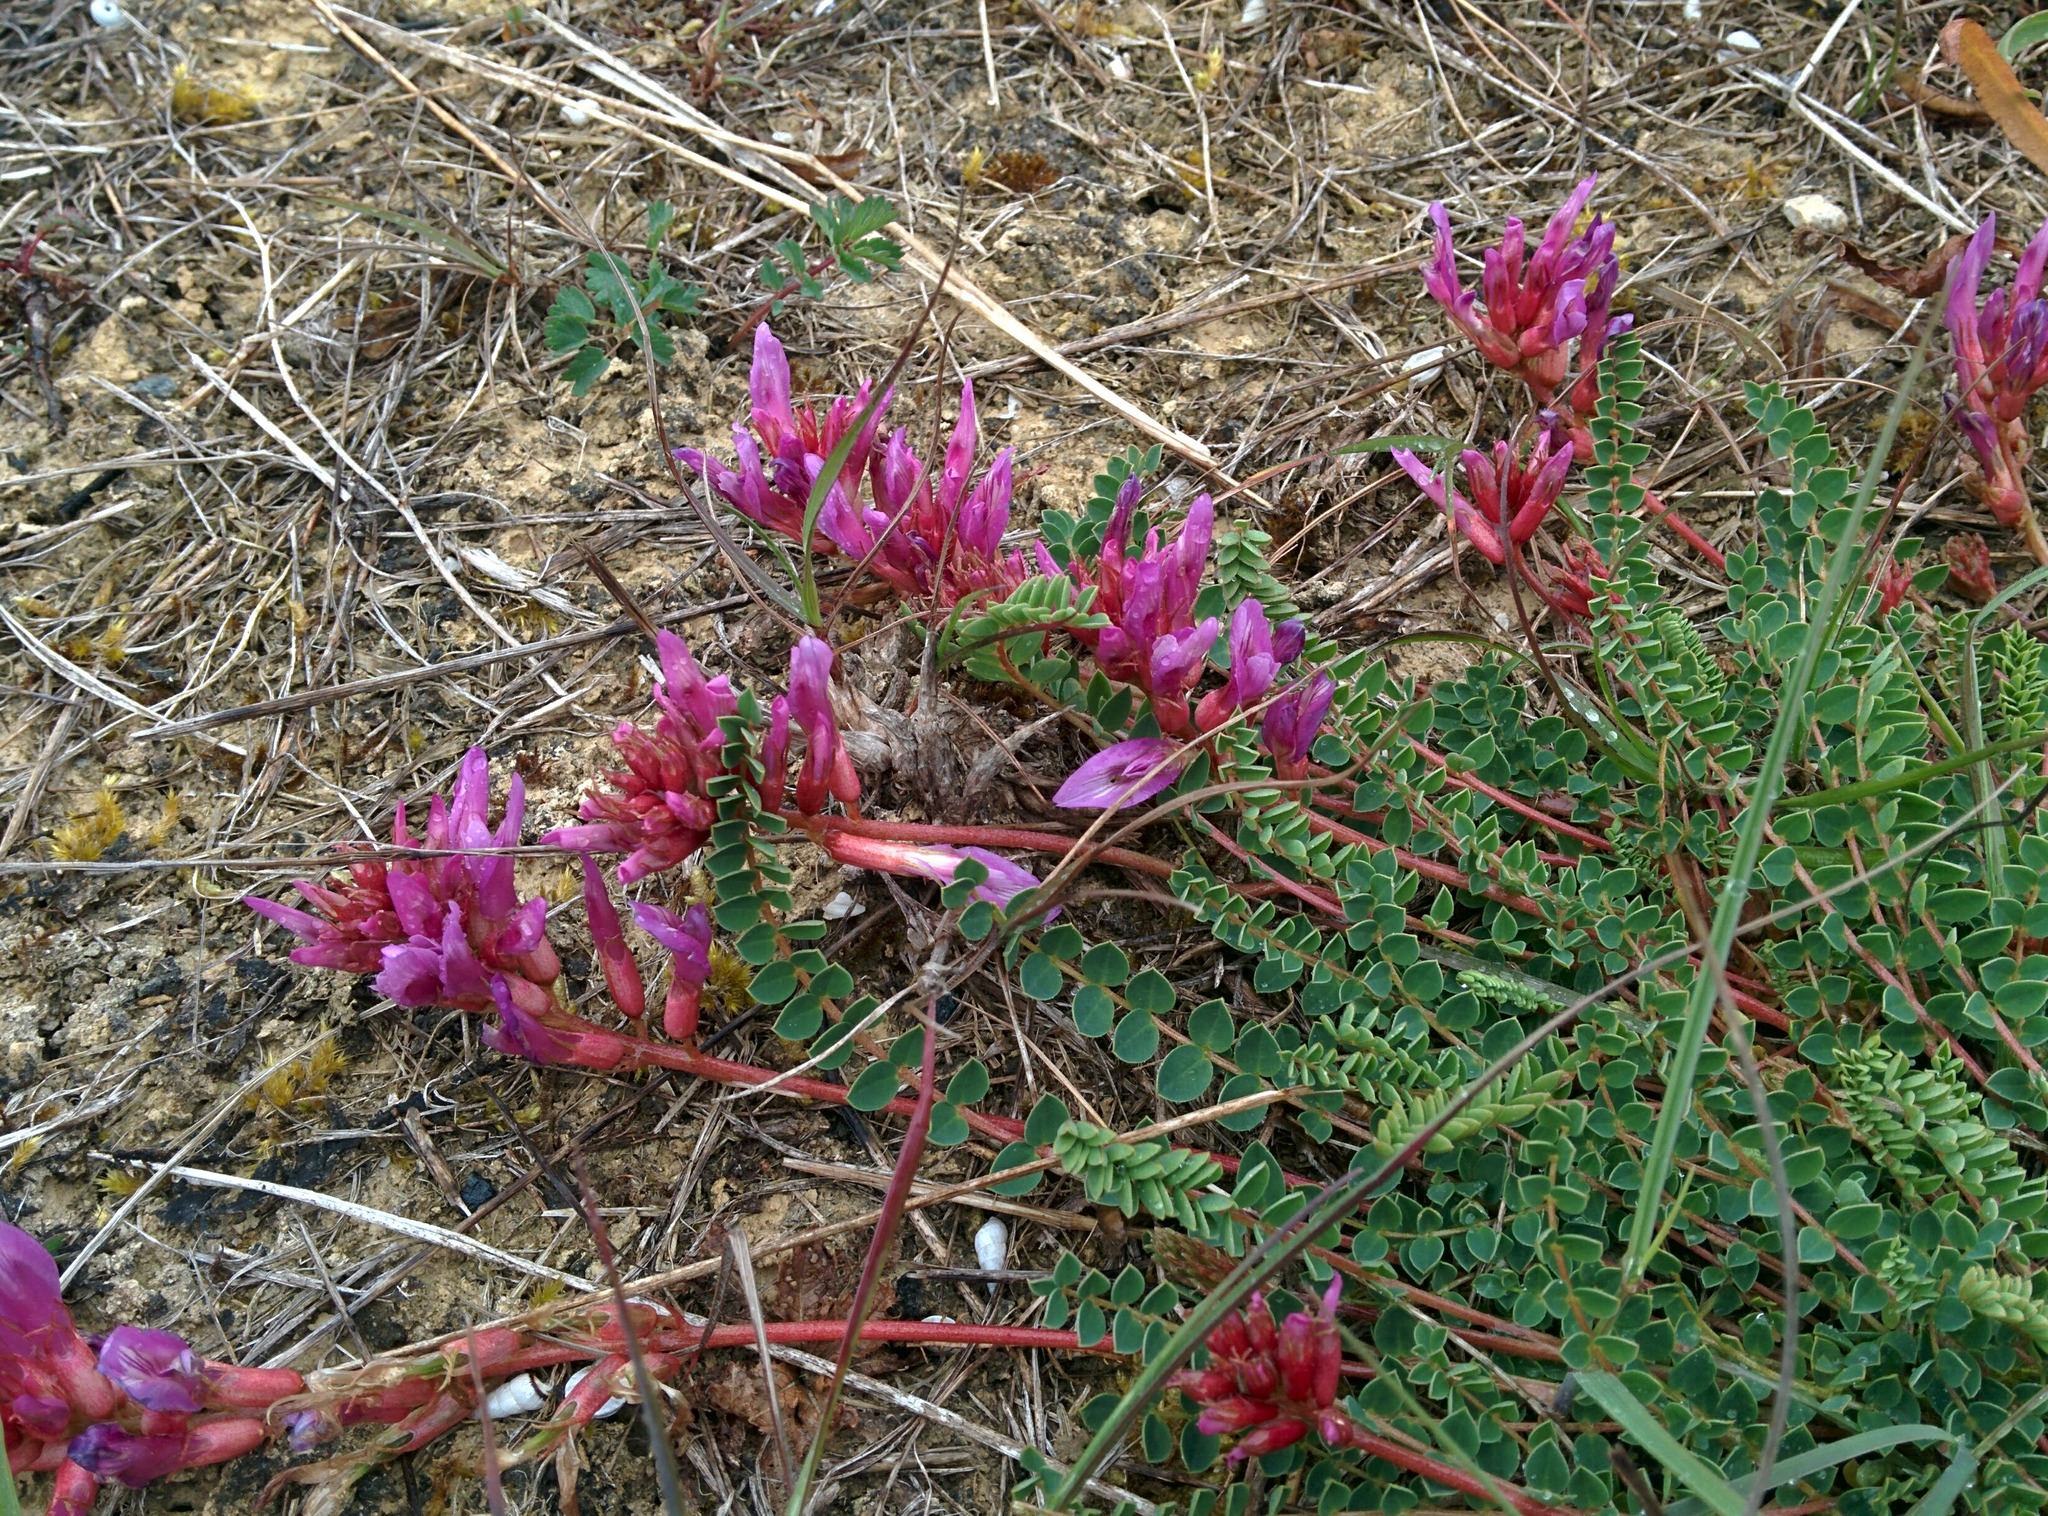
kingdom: Plantae
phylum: Tracheophyta
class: Magnoliopsida
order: Fabales
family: Fabaceae
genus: Astragalus
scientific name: Astragalus monspessulanus
